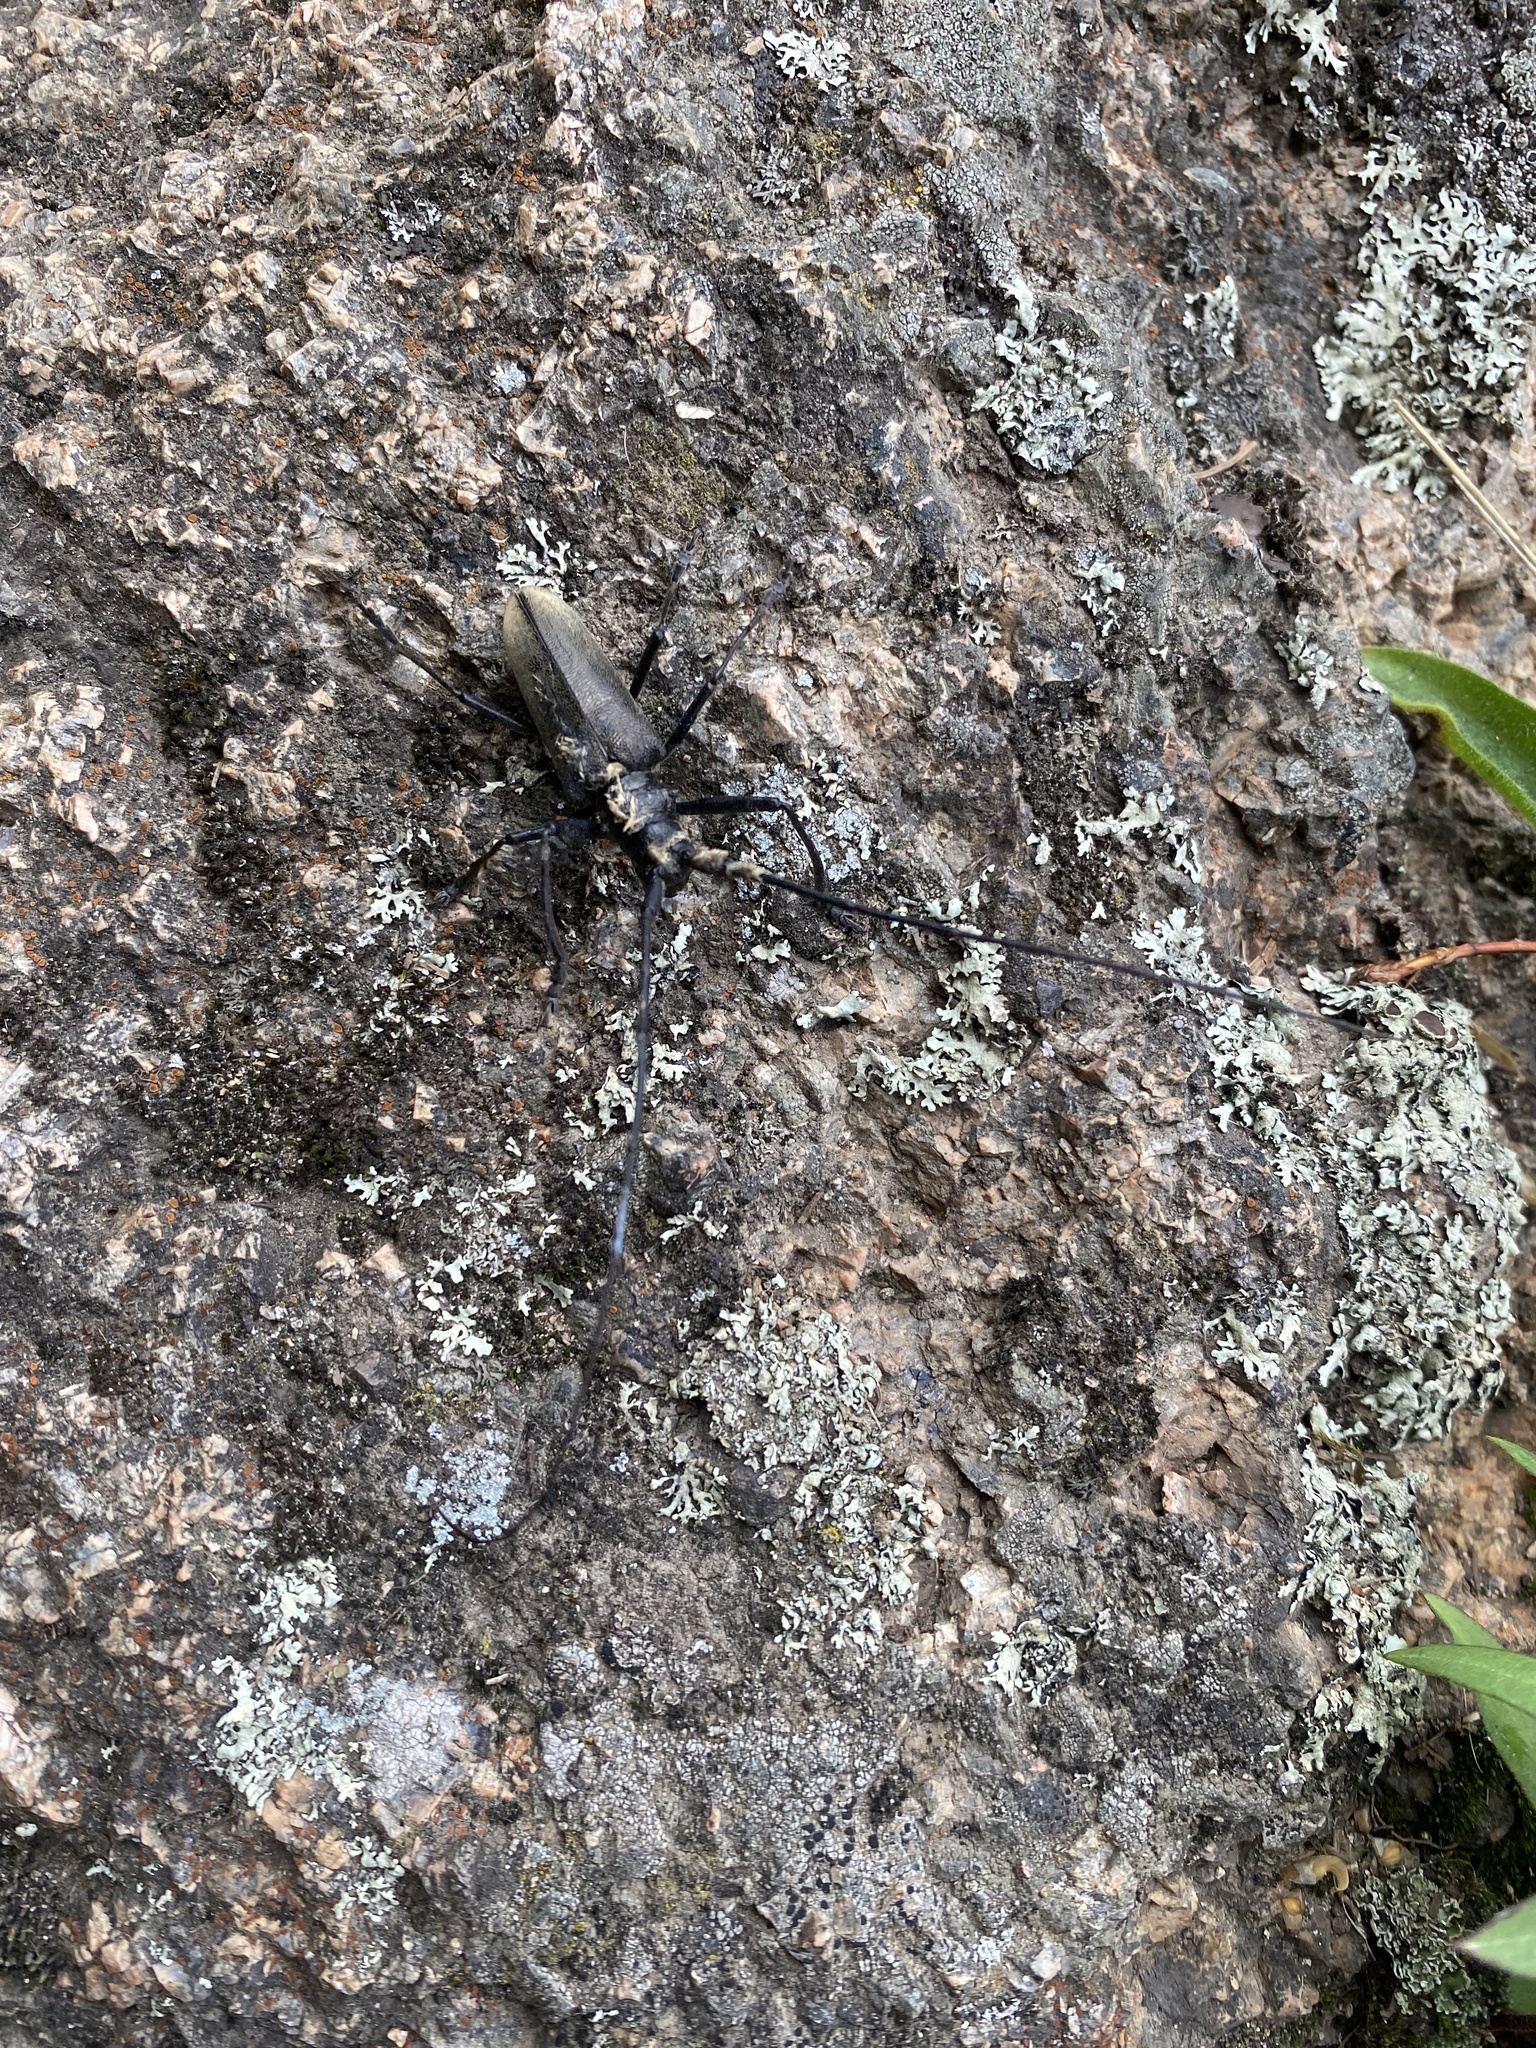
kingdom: Animalia
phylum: Arthropoda
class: Insecta
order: Coleoptera
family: Cerambycidae
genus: Monochamus
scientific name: Monochamus sartor
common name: Pine sawyer
